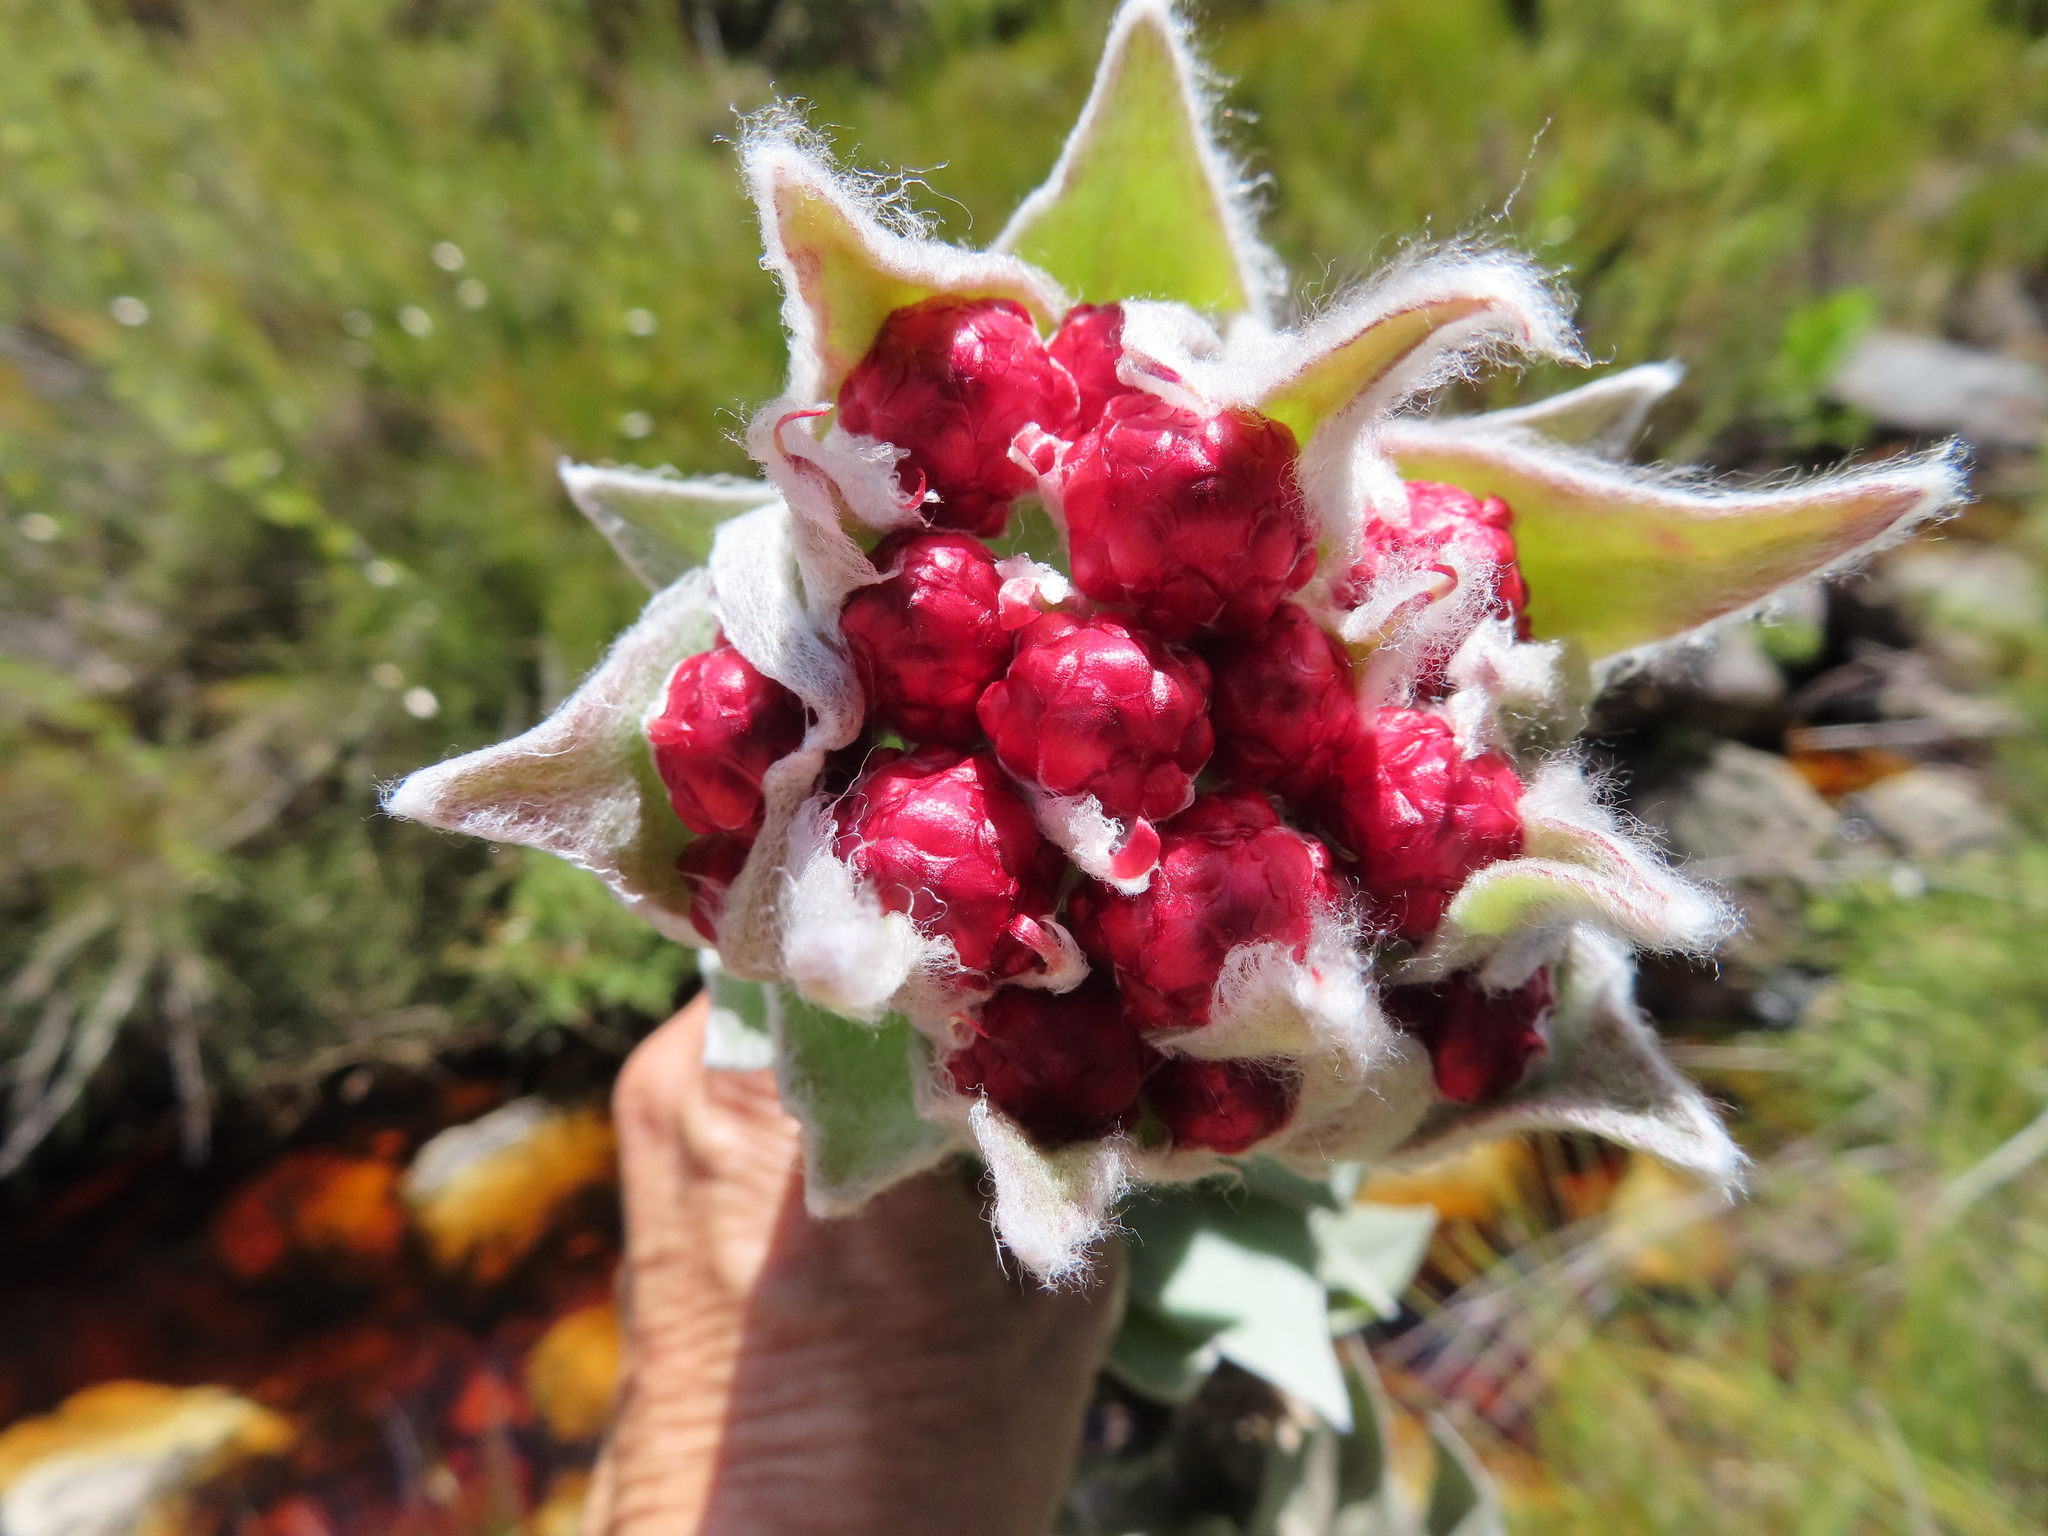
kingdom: Plantae
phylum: Tracheophyta
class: Magnoliopsida
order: Asterales
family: Asteraceae
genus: Syncarpha
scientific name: Syncarpha eximia
